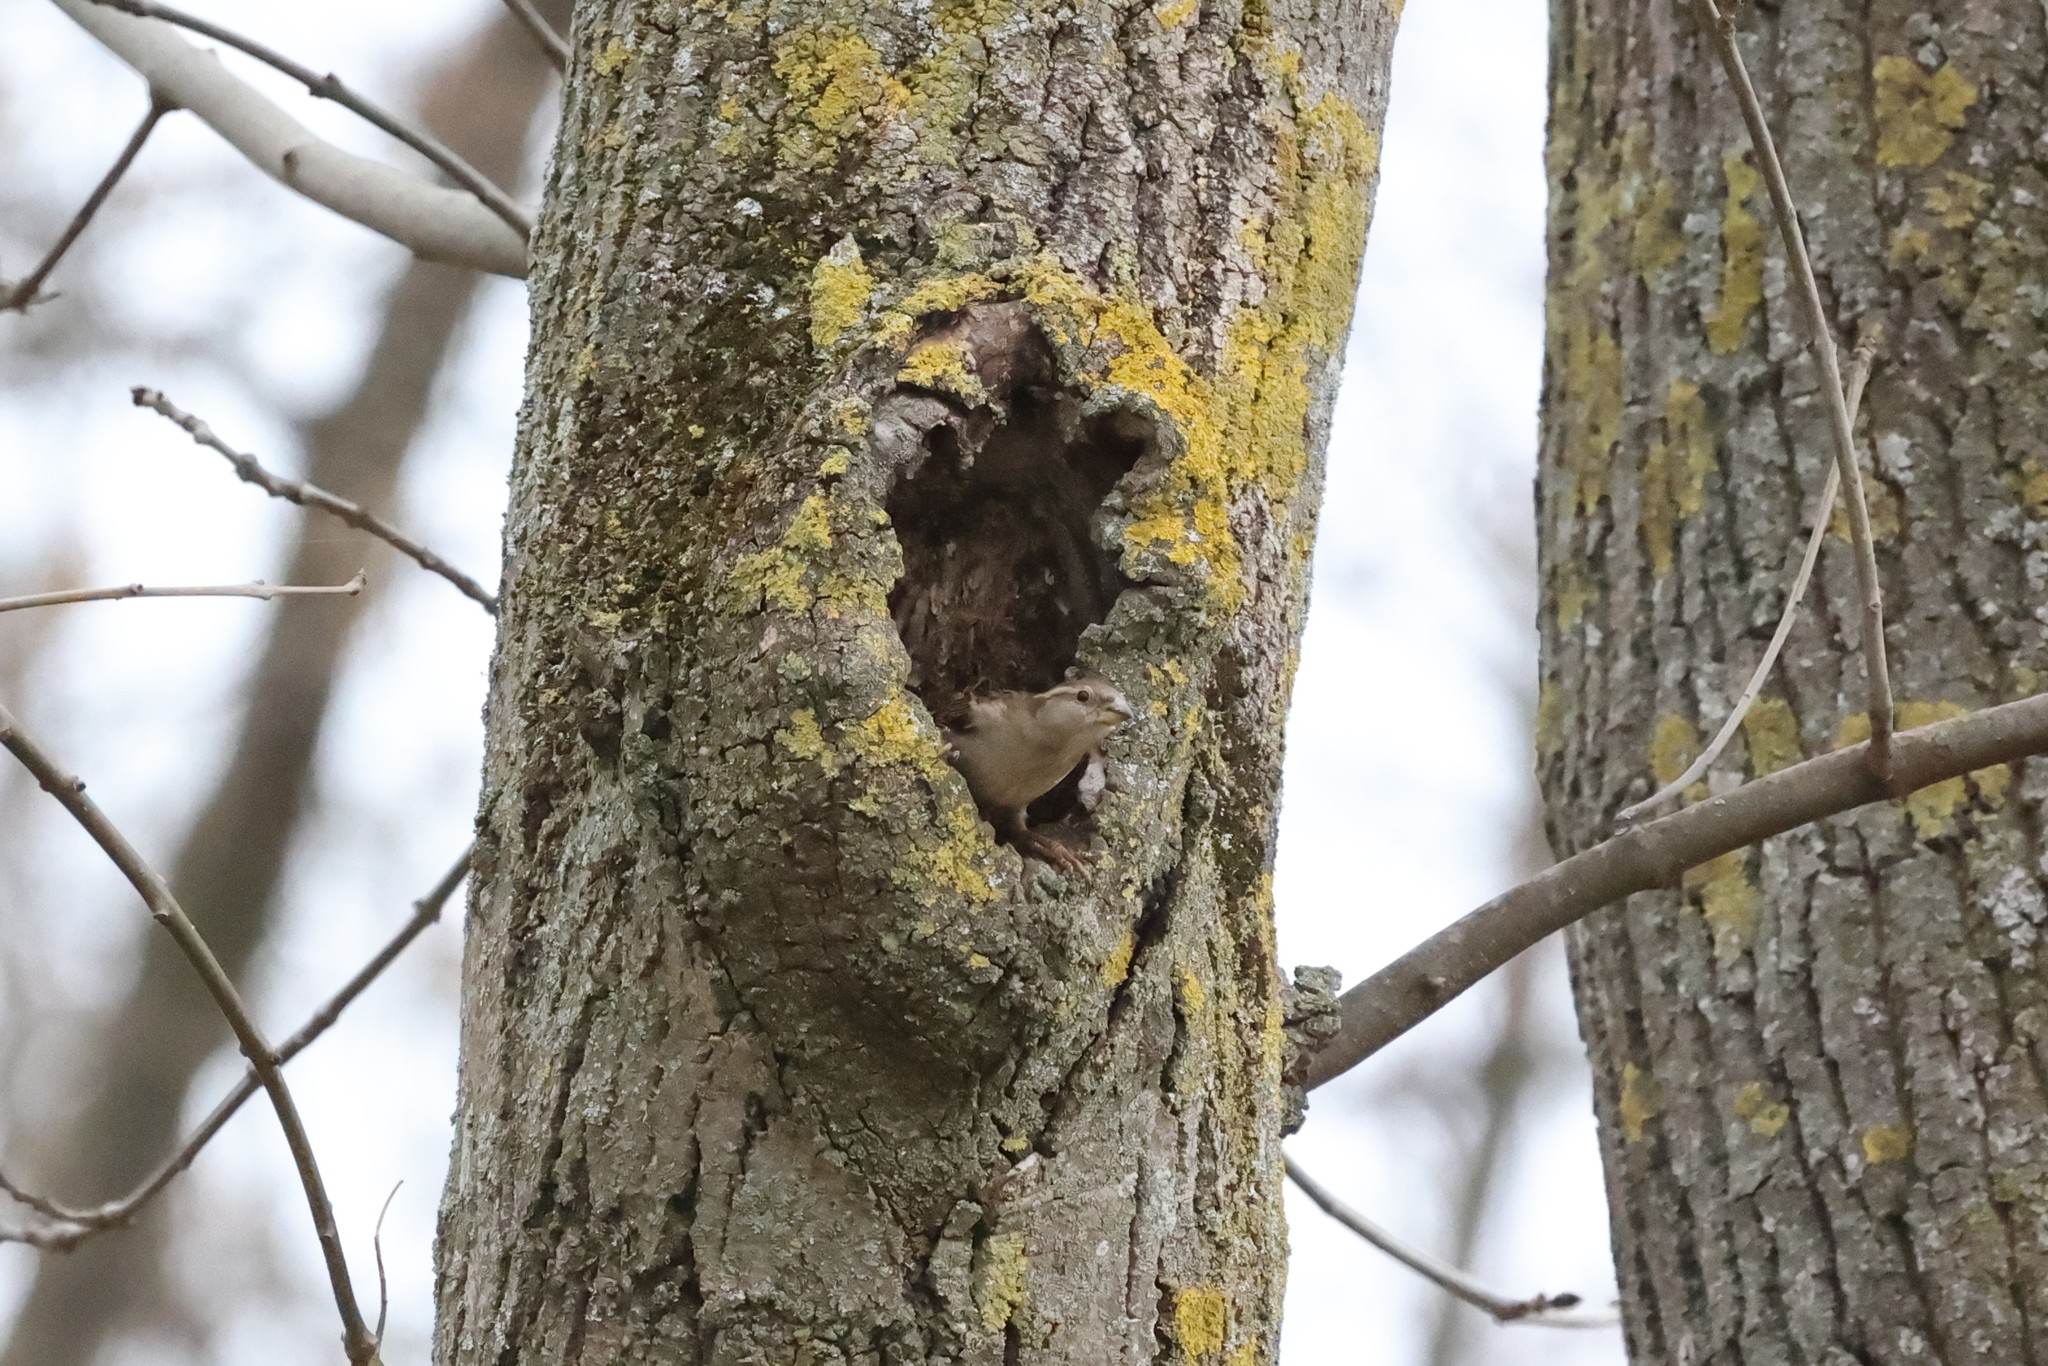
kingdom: Animalia
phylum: Chordata
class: Aves
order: Passeriformes
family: Passeridae
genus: Passer
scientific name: Passer domesticus
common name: House sparrow
